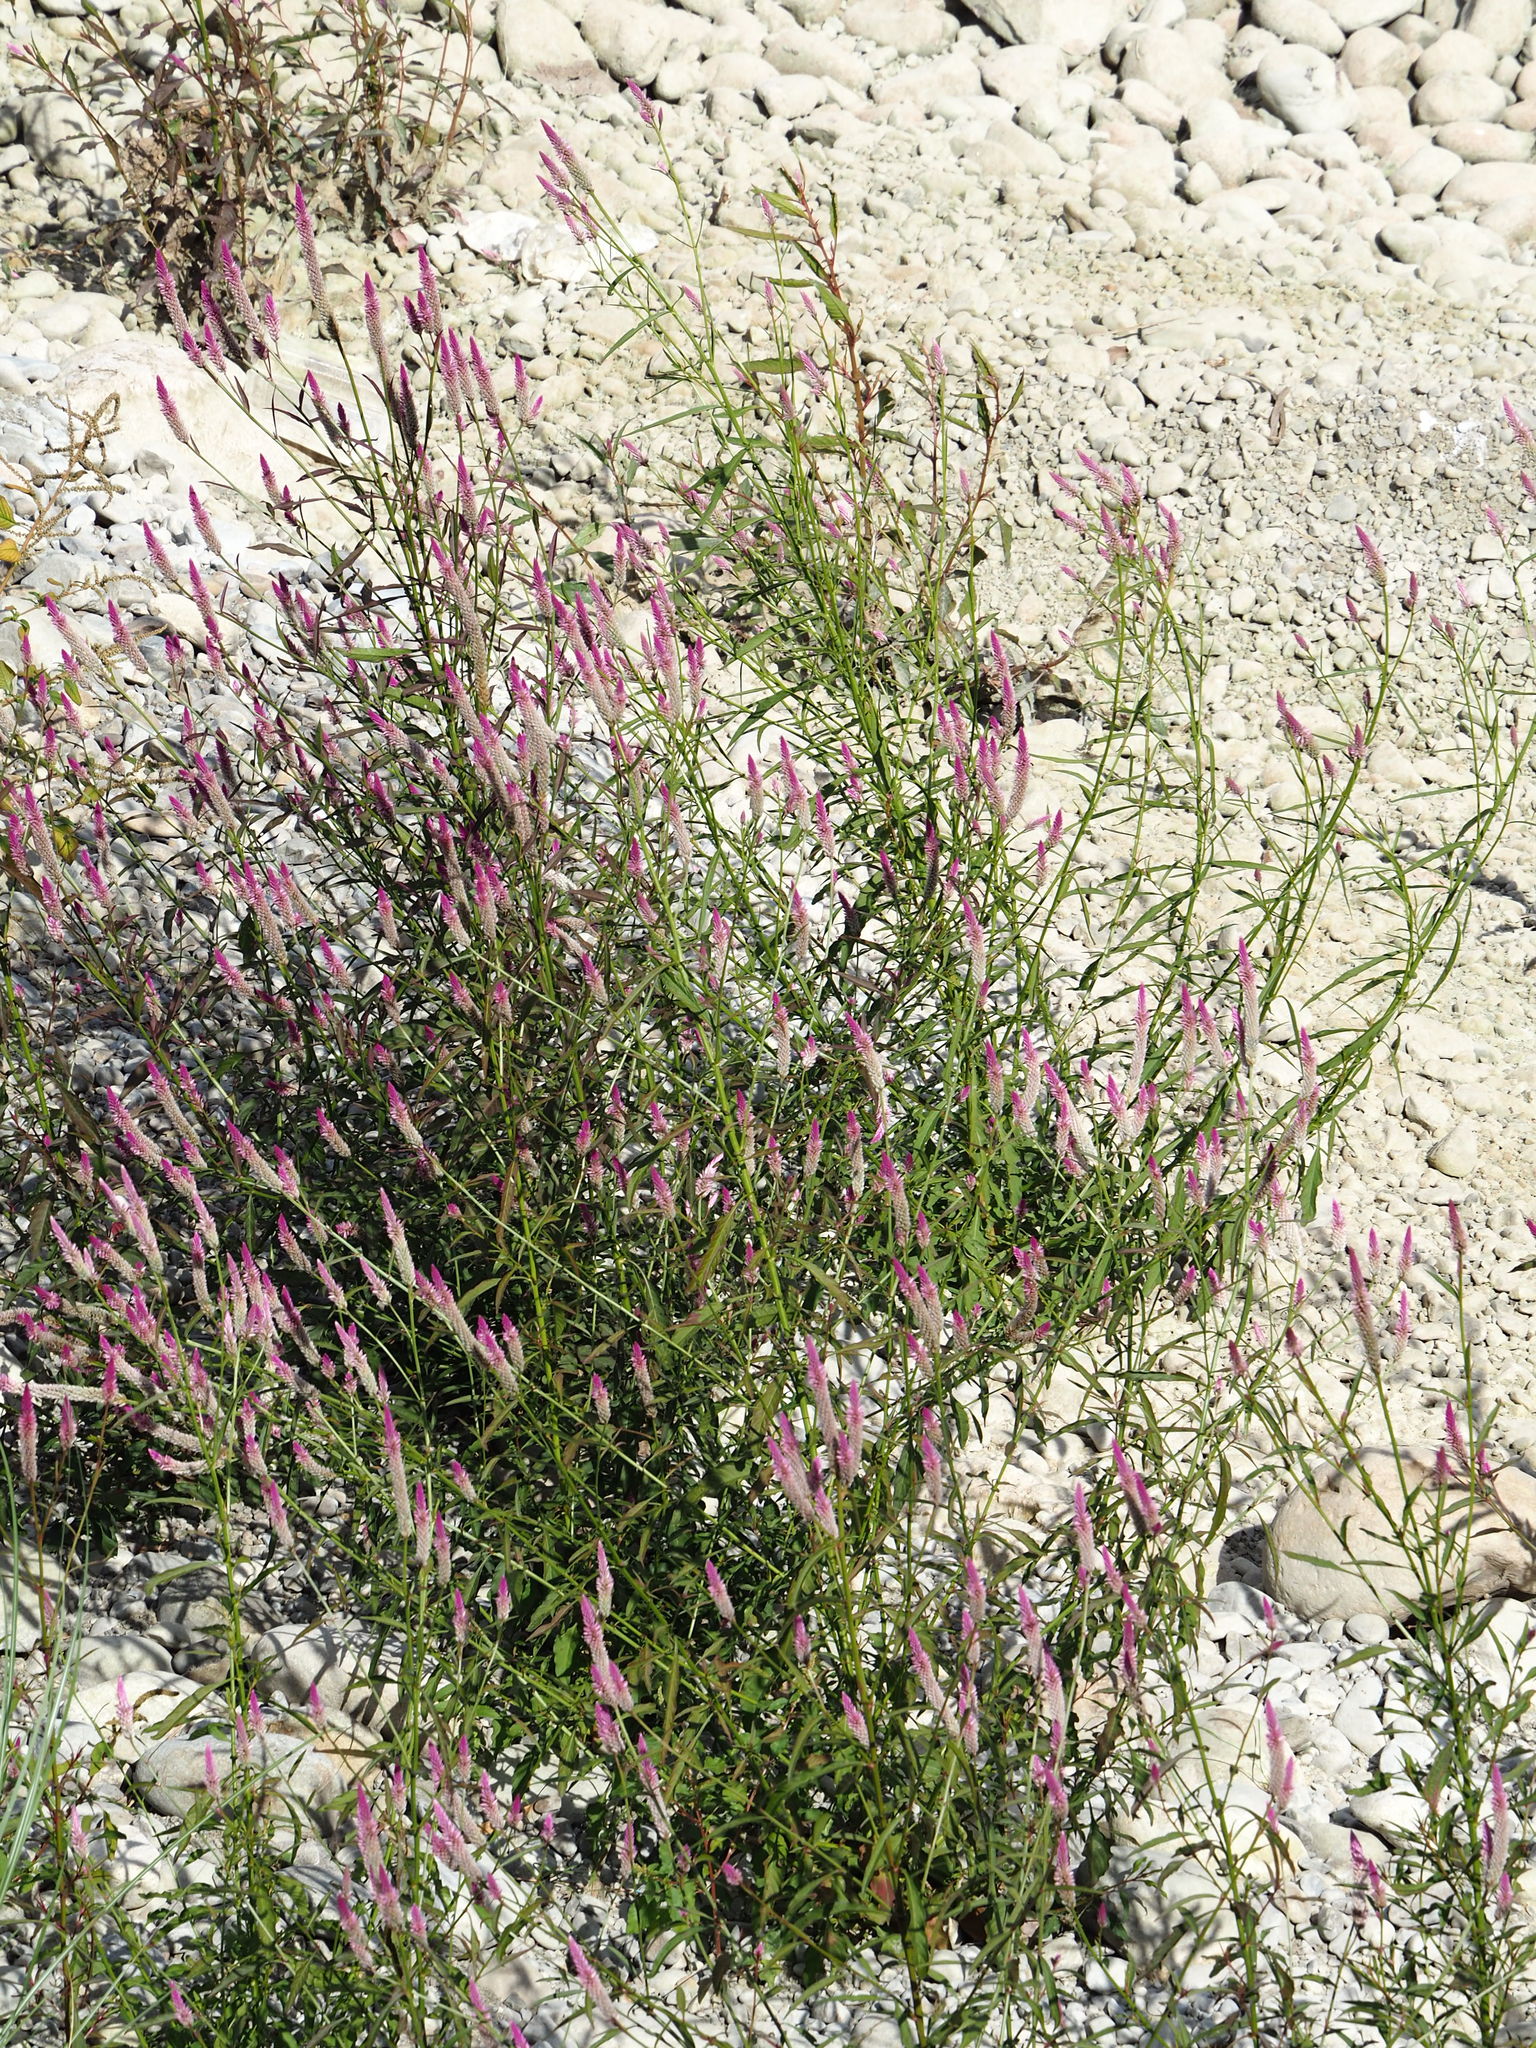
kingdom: Plantae
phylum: Tracheophyta
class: Magnoliopsida
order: Caryophyllales
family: Amaranthaceae
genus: Celosia
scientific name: Celosia argentea
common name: Feather cockscomb
